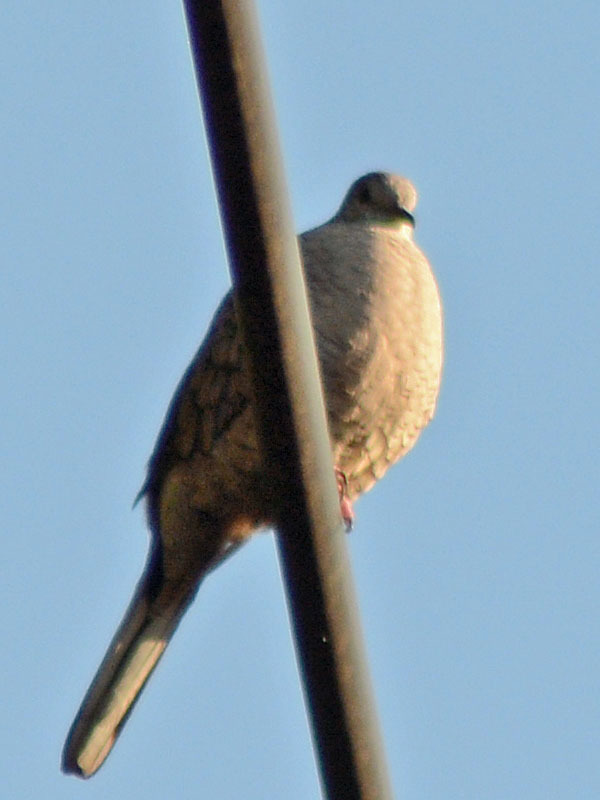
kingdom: Animalia
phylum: Chordata
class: Aves
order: Columbiformes
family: Columbidae
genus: Columbina
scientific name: Columbina inca
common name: Inca dove
